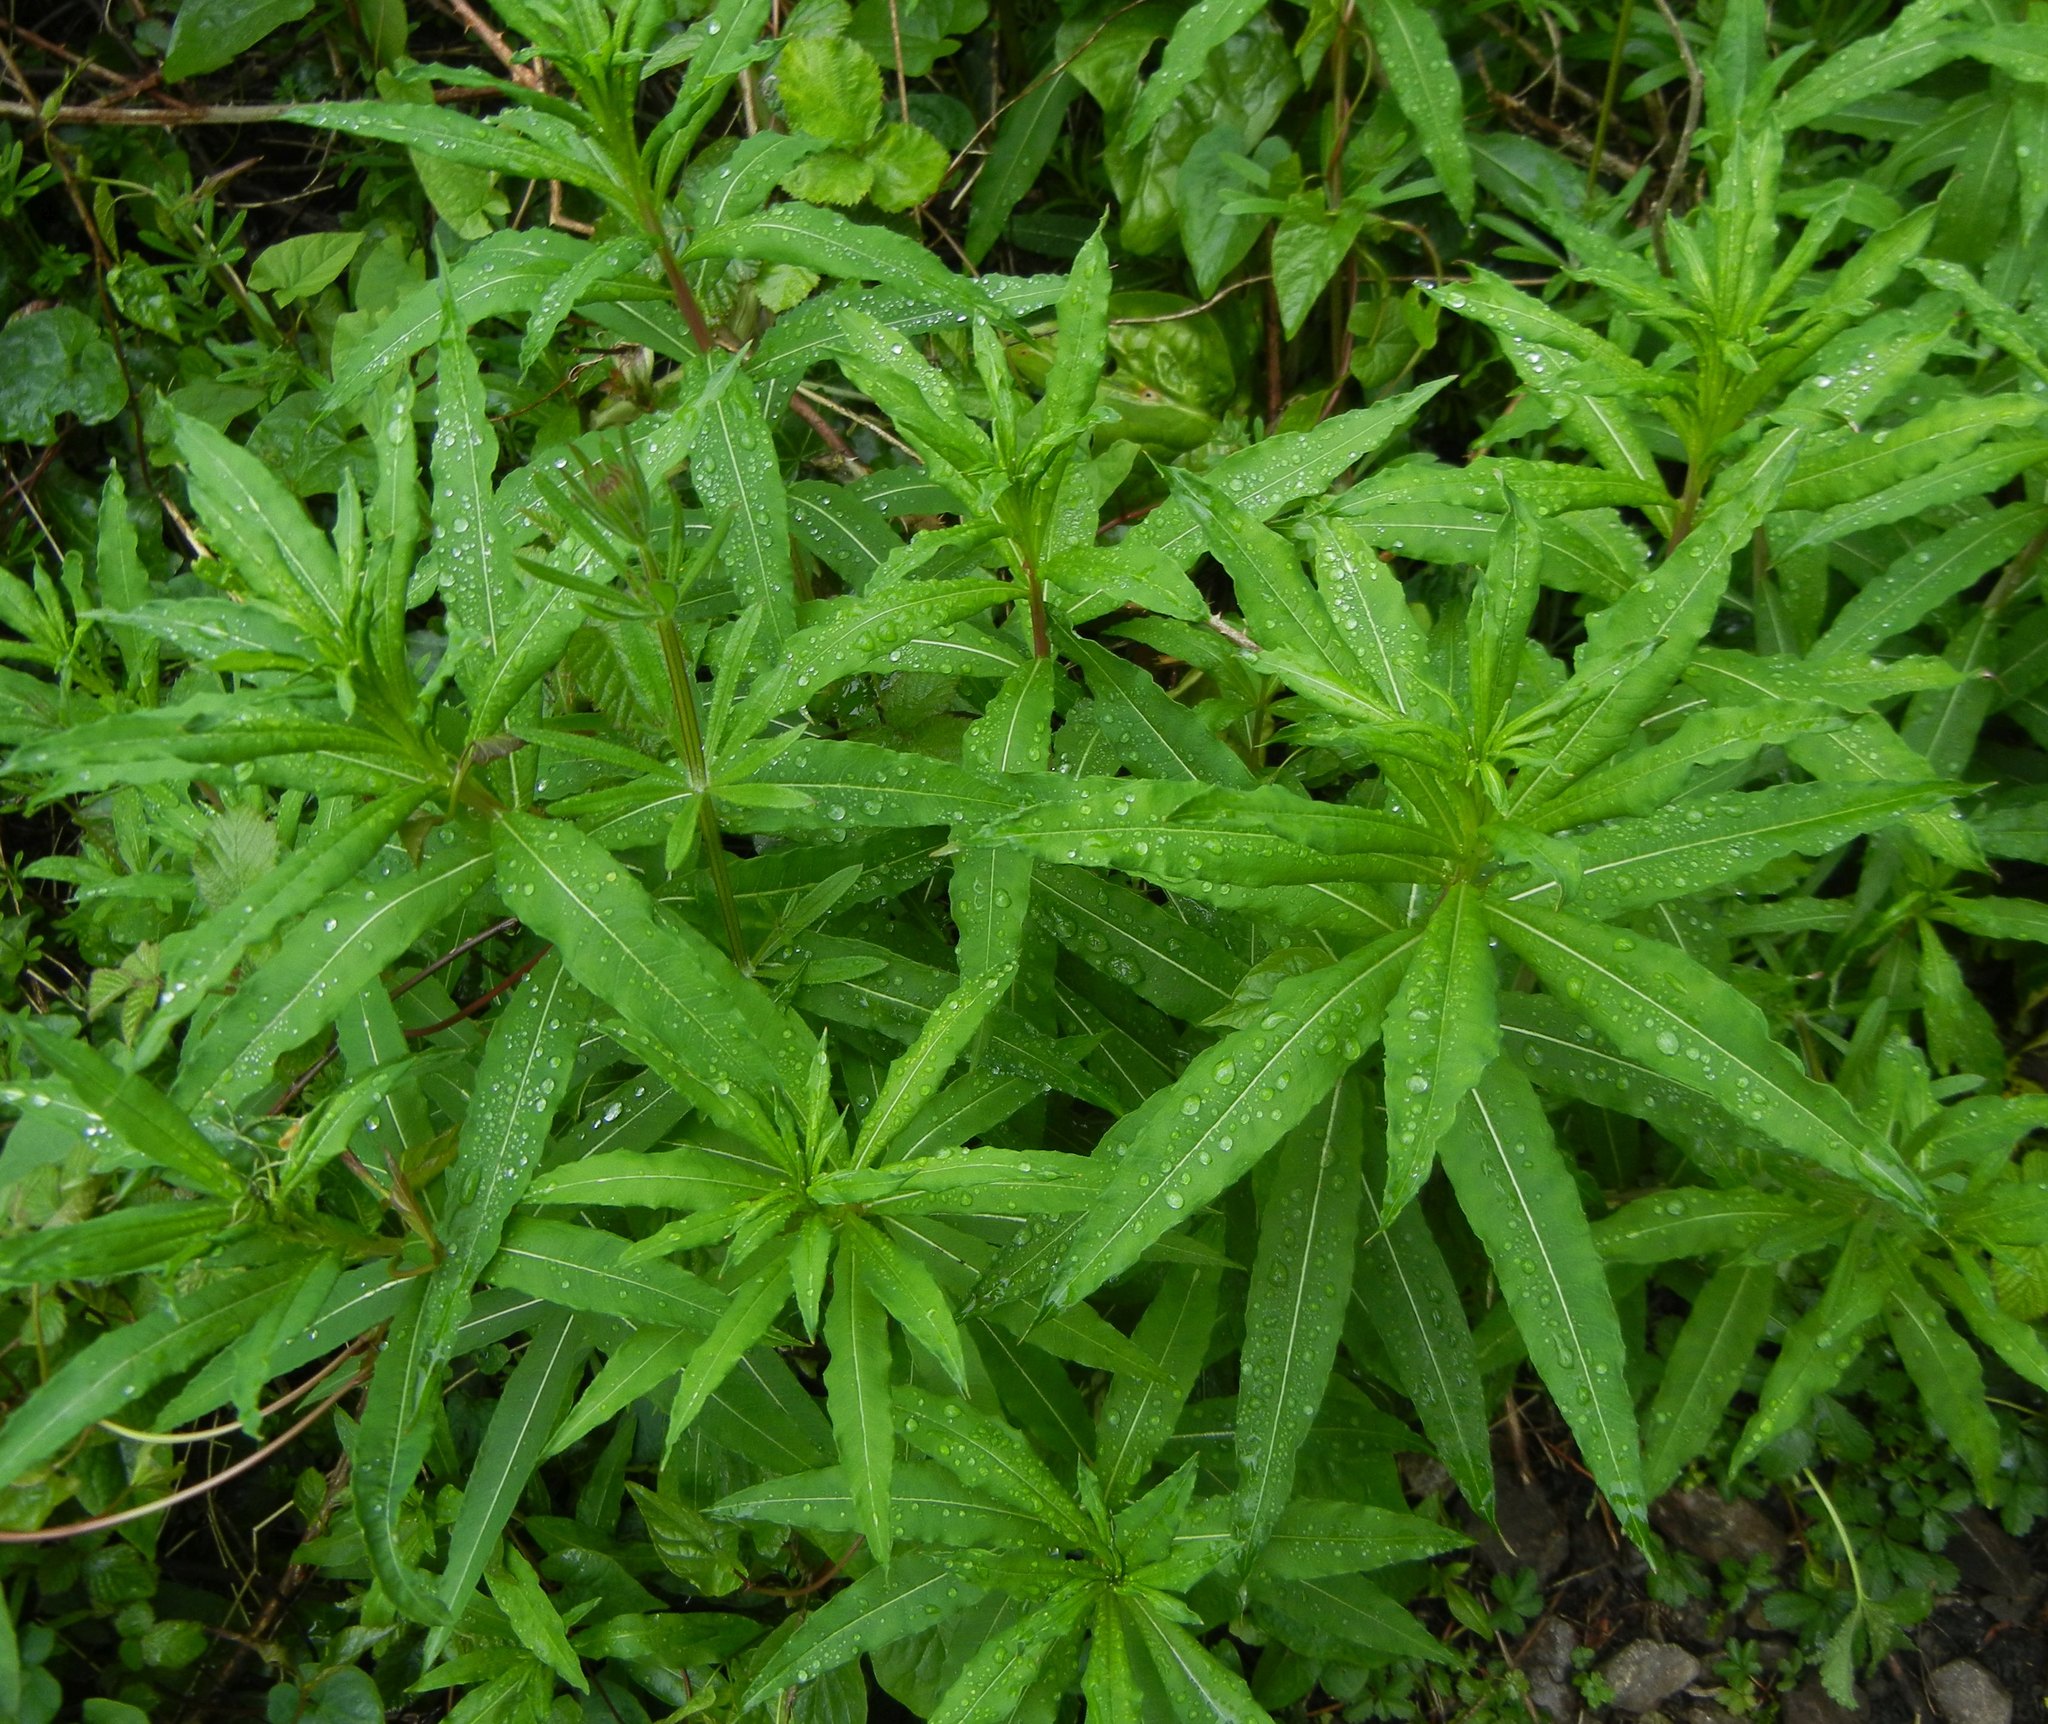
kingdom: Plantae
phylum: Tracheophyta
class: Magnoliopsida
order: Myrtales
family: Onagraceae
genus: Chamaenerion
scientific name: Chamaenerion angustifolium
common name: Fireweed
